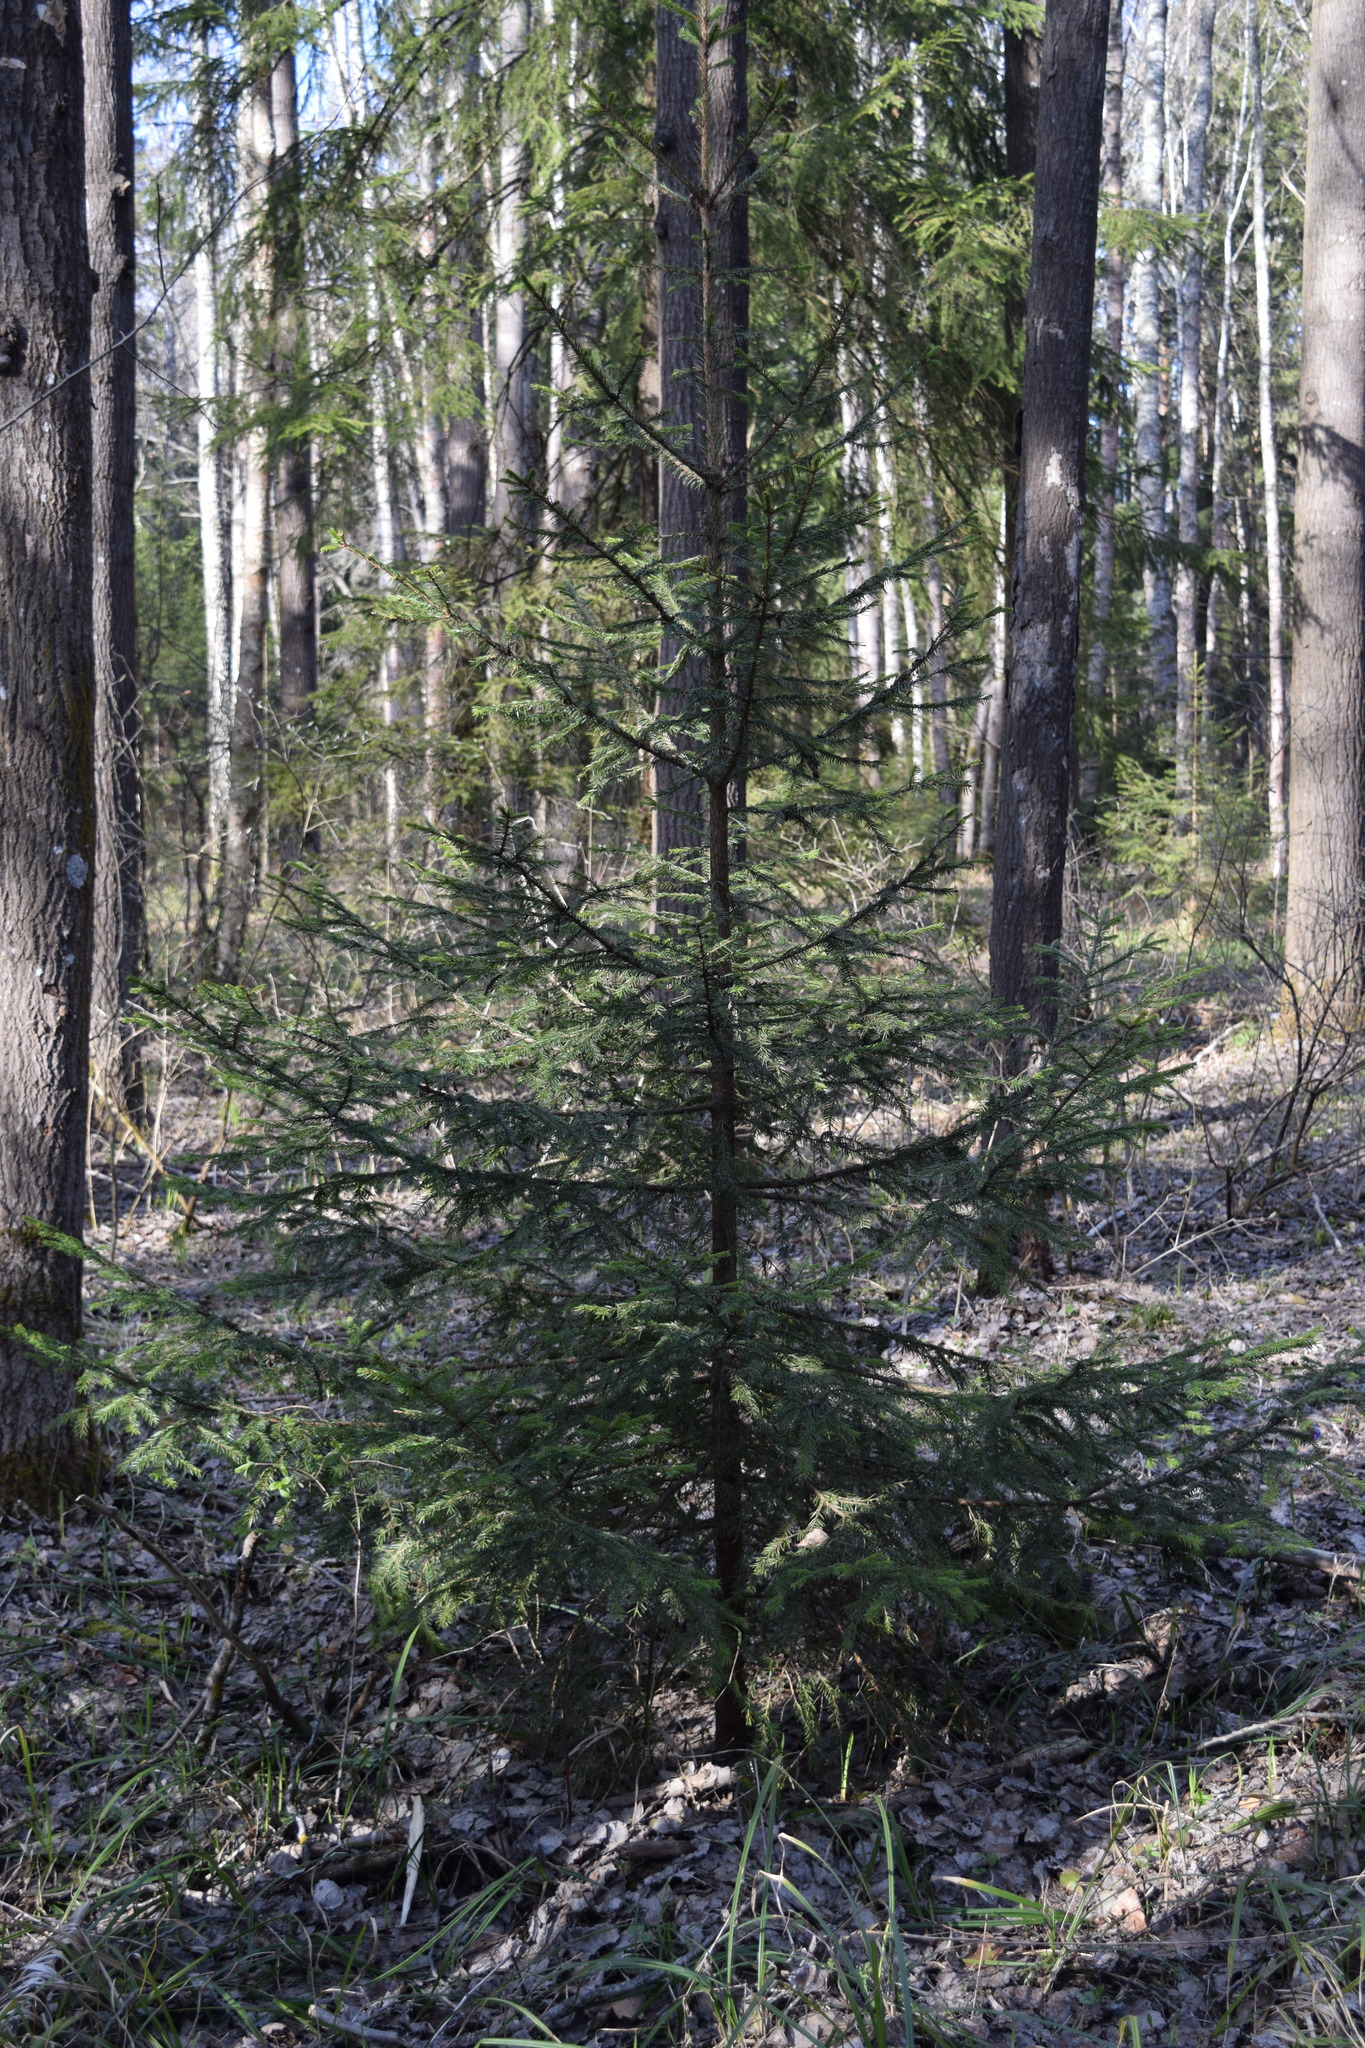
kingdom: Plantae
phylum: Tracheophyta
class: Pinopsida
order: Pinales
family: Pinaceae
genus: Picea
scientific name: Picea abies
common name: Norway spruce
